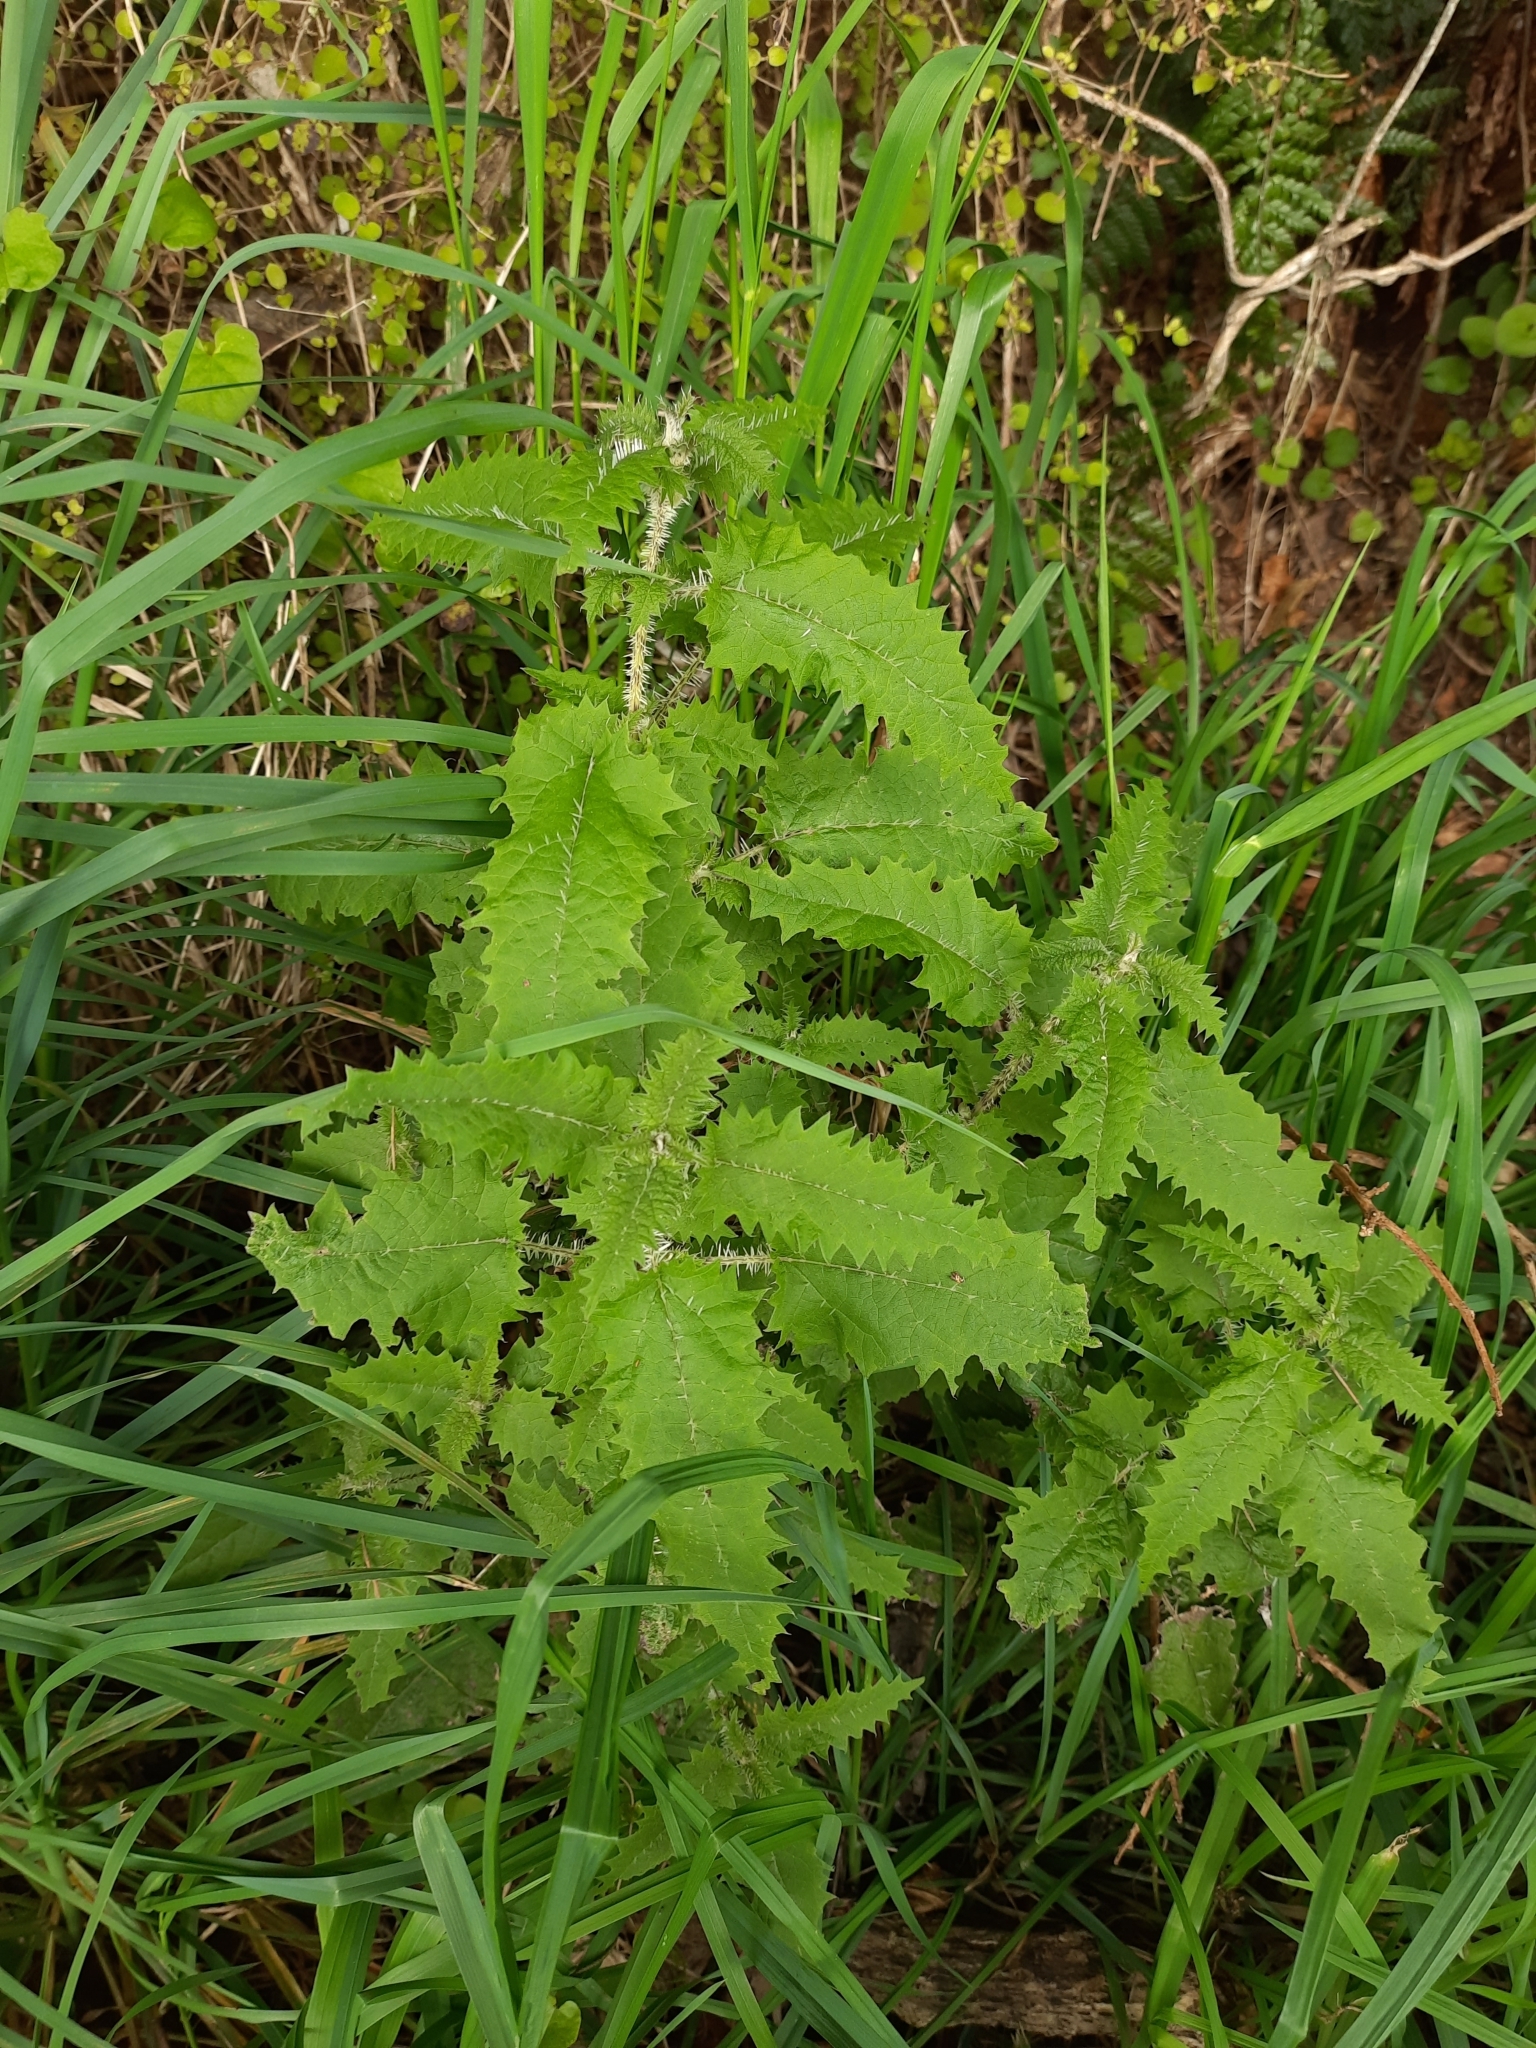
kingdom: Plantae
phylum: Tracheophyta
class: Magnoliopsida
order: Rosales
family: Urticaceae
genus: Urtica
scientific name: Urtica ferox
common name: Tree nettle
